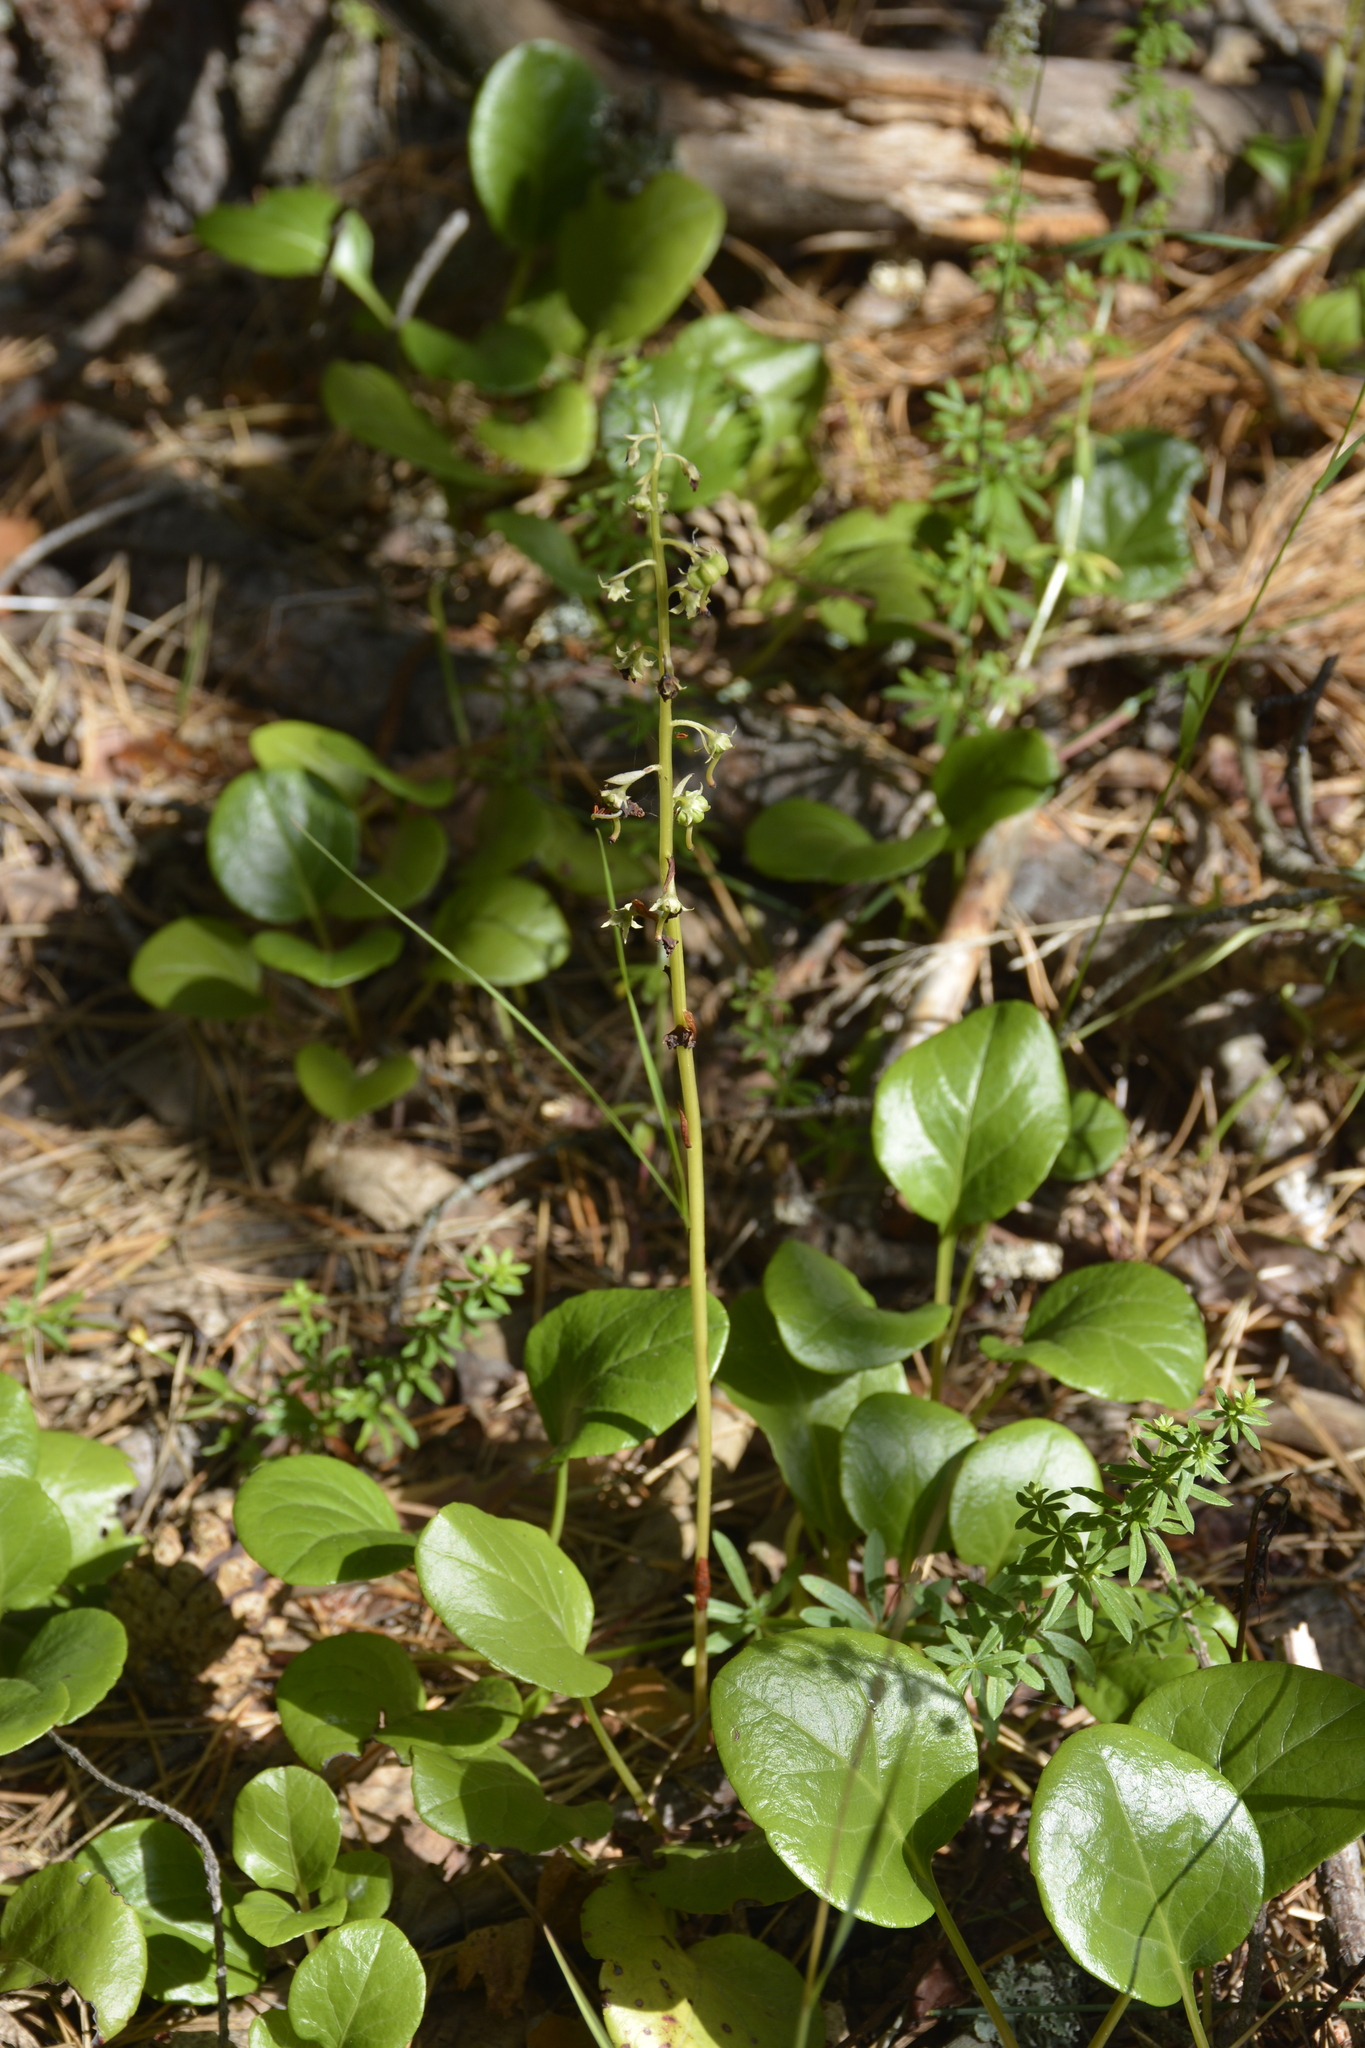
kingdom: Plantae
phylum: Tracheophyta
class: Magnoliopsida
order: Ericales
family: Ericaceae
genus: Pyrola
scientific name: Pyrola rotundifolia
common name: Round-leaved wintergreen
